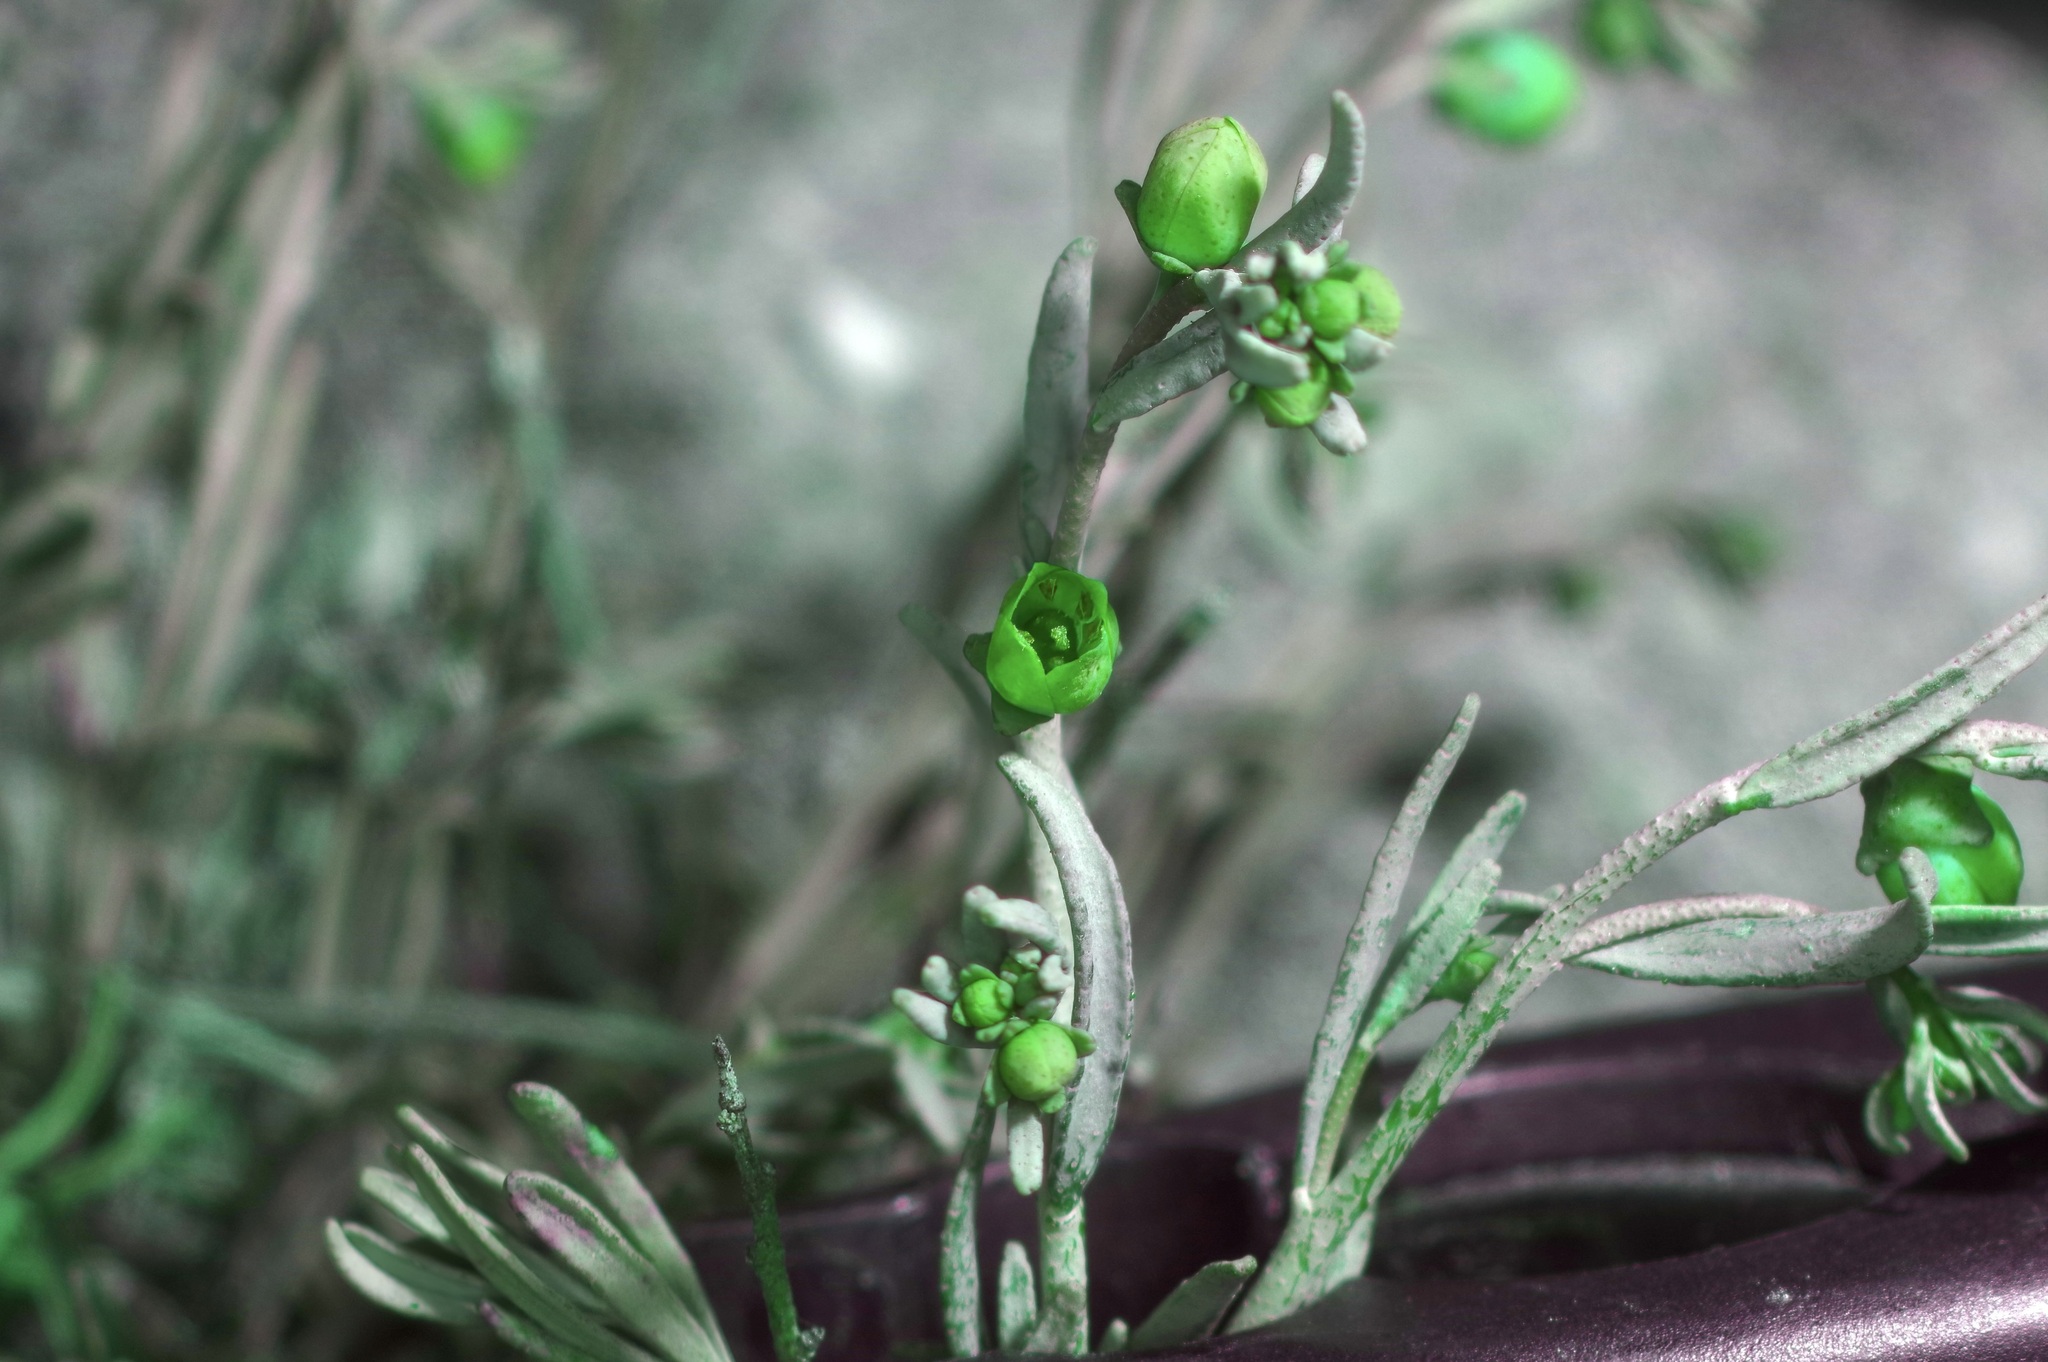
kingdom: Plantae
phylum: Tracheophyta
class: Magnoliopsida
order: Sapindales
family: Rutaceae
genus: Thamnosma
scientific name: Thamnosma texana
